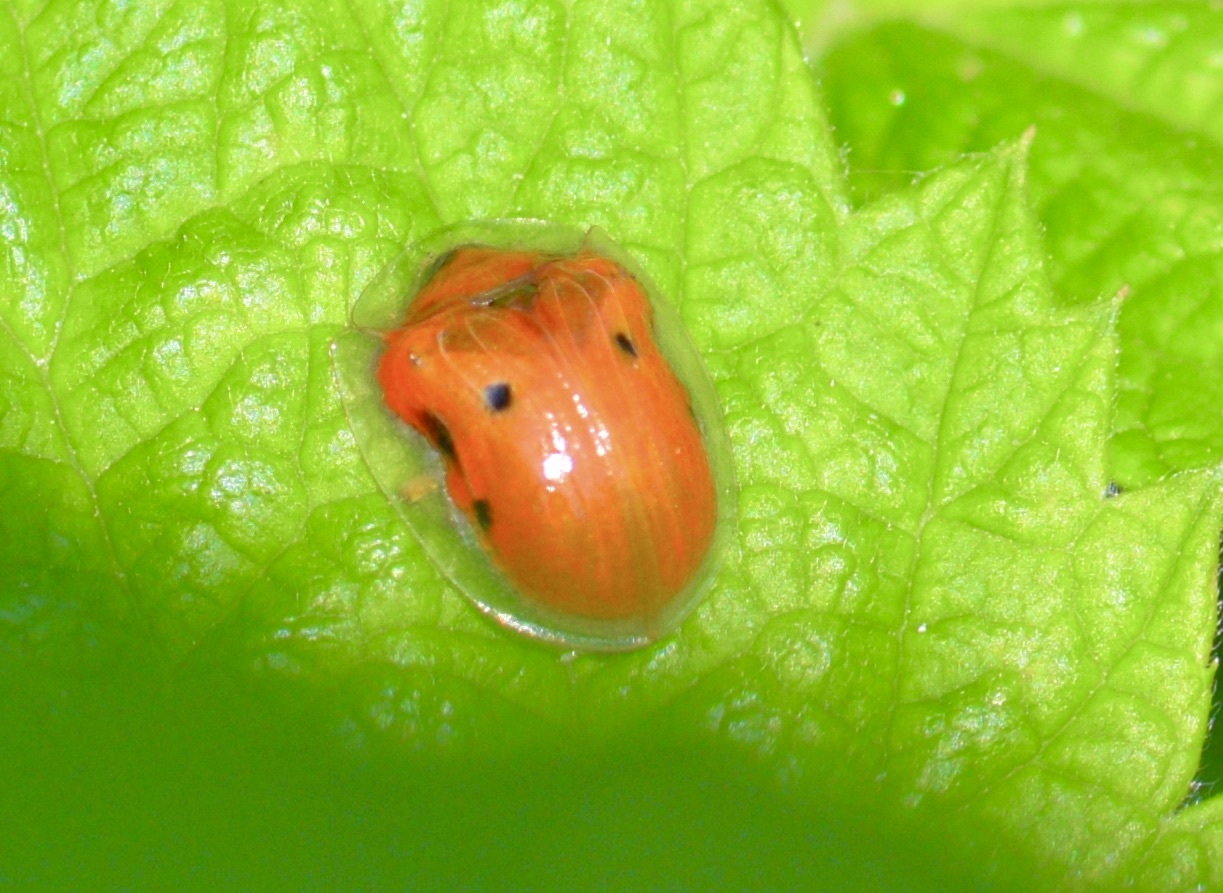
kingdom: Animalia
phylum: Arthropoda
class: Insecta
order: Coleoptera
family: Chrysomelidae
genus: Charidotella
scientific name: Charidotella sexpunctata
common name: Golden tortoise beetle
